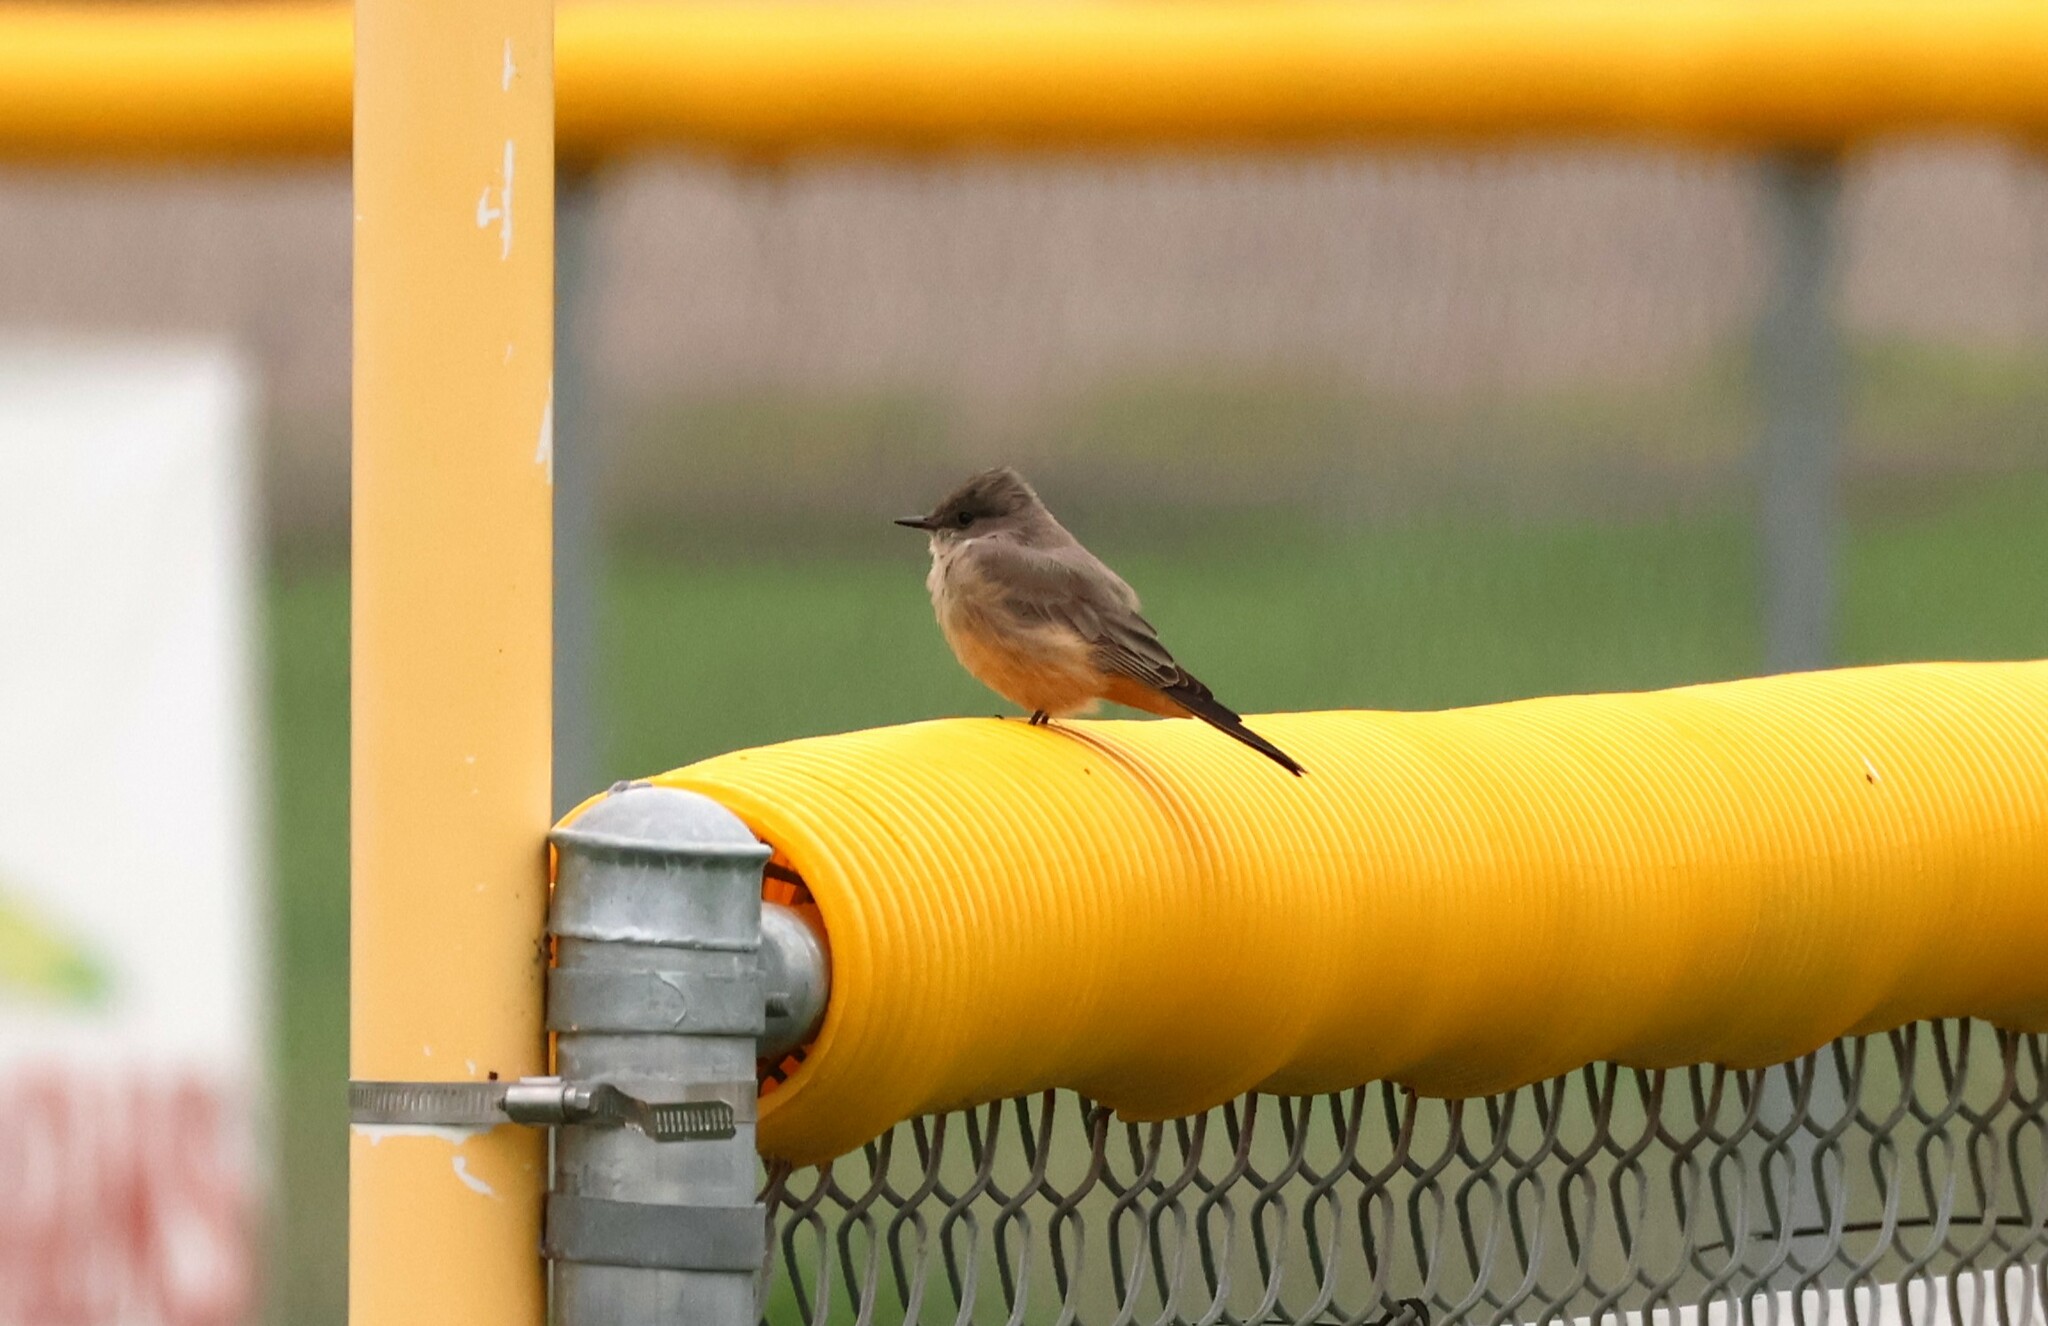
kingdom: Animalia
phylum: Chordata
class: Aves
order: Passeriformes
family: Tyrannidae
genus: Sayornis
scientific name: Sayornis saya
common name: Say's phoebe
